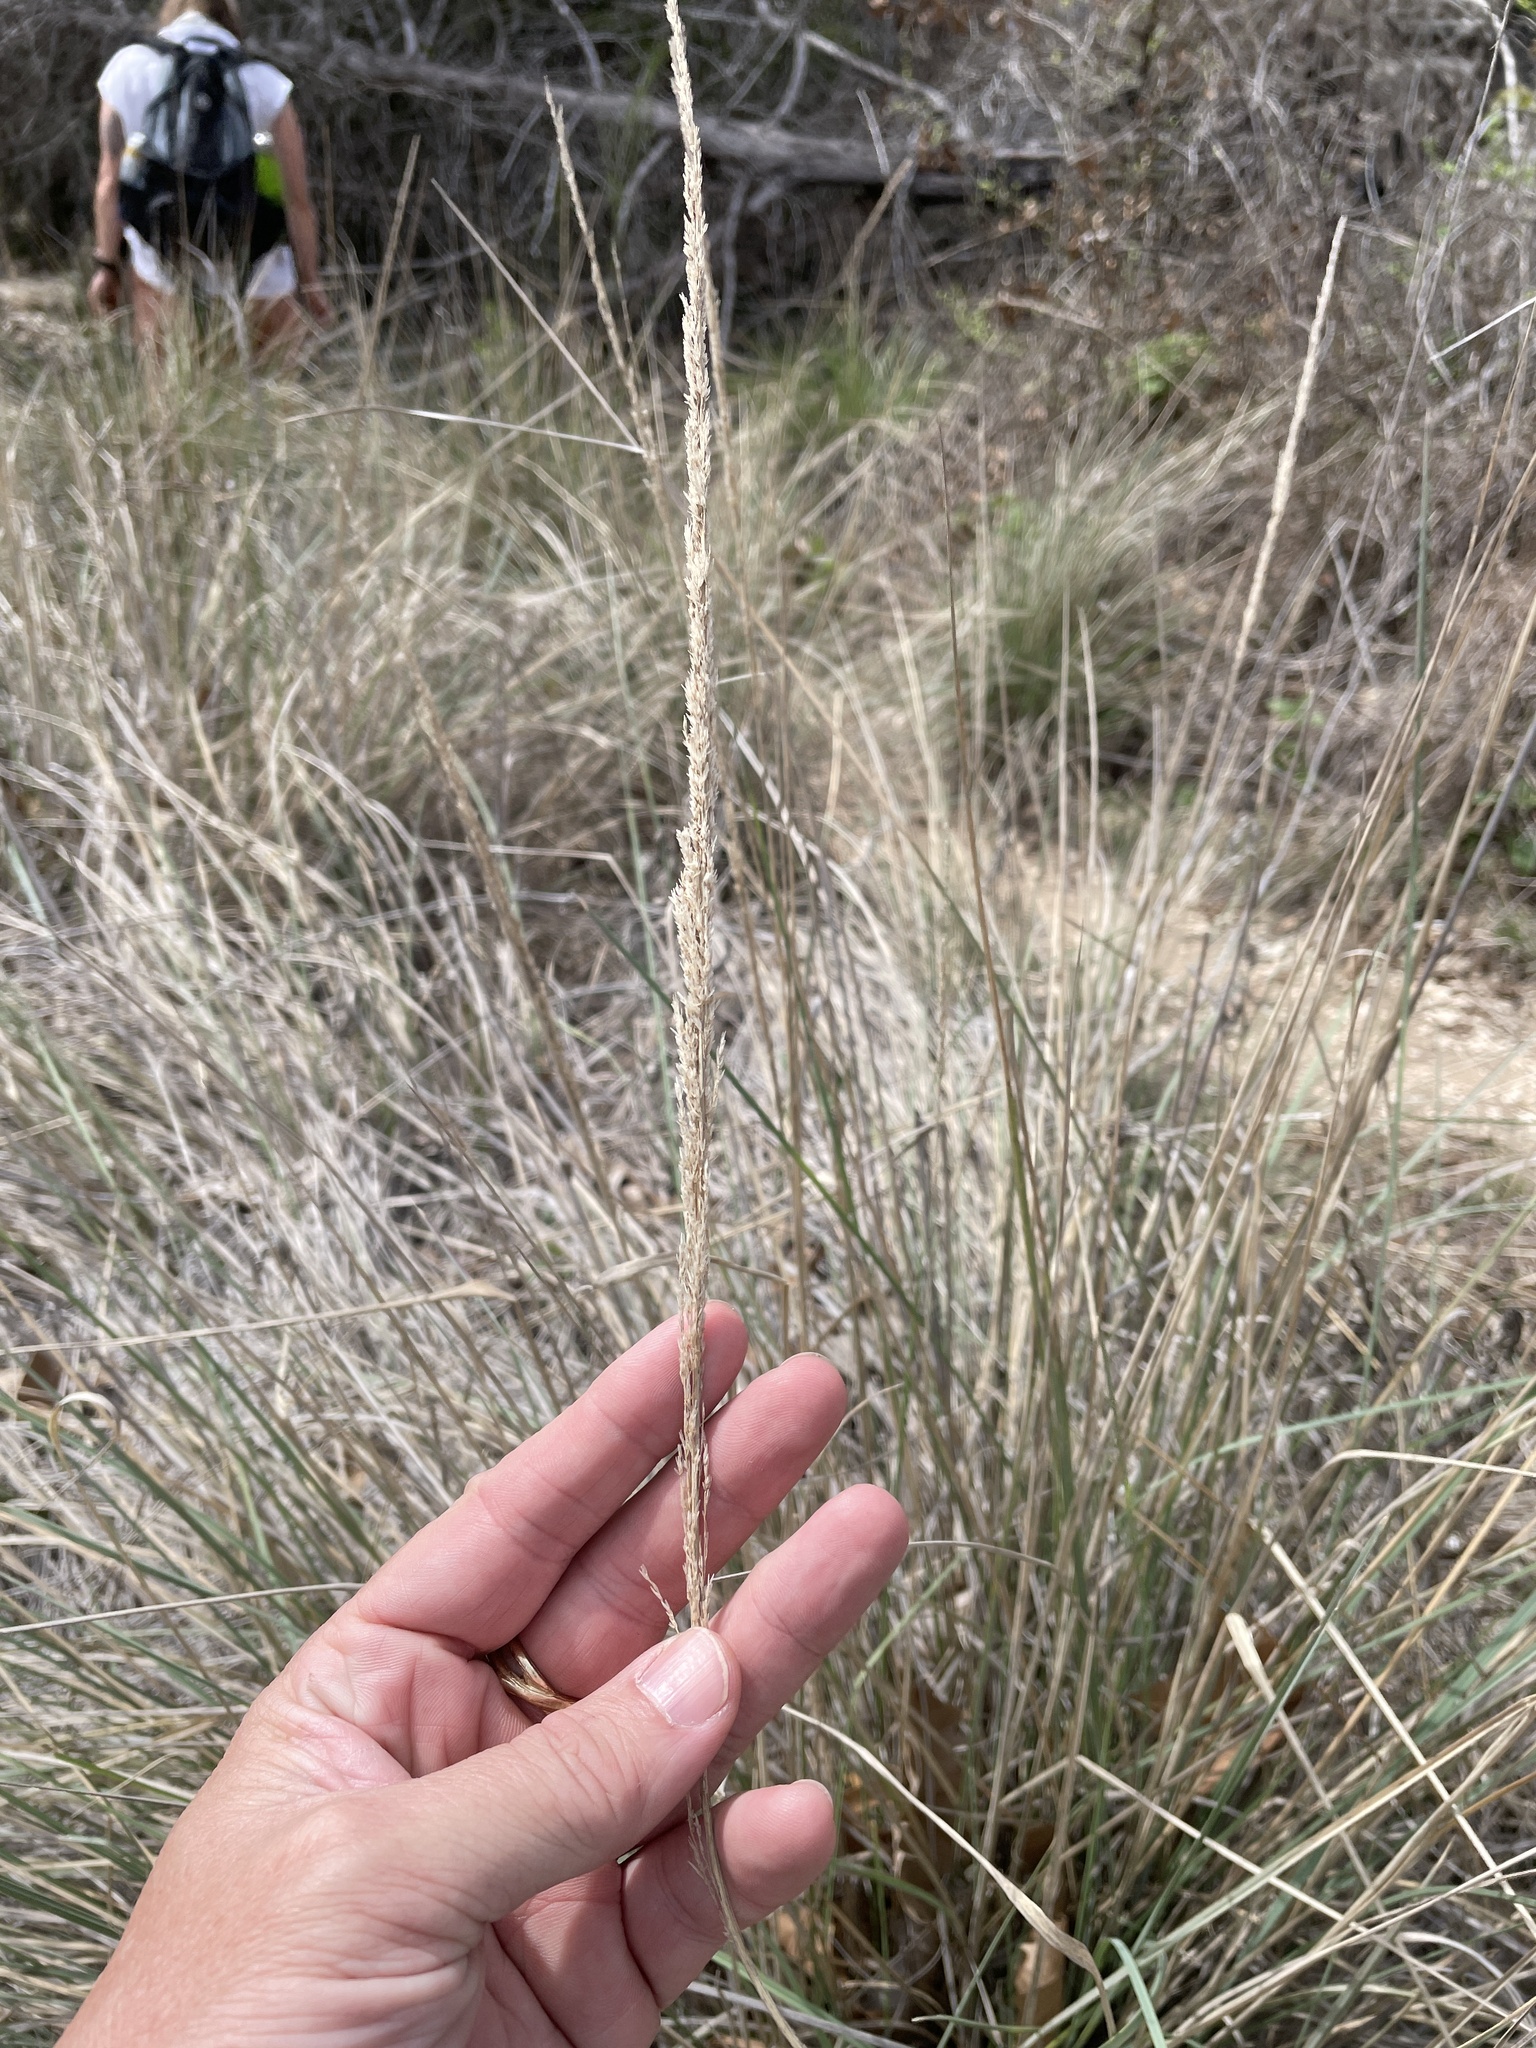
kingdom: Plantae
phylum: Tracheophyta
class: Liliopsida
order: Poales
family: Poaceae
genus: Muhlenbergia
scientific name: Muhlenbergia lindheimeri
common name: Lindheimer's muhly
